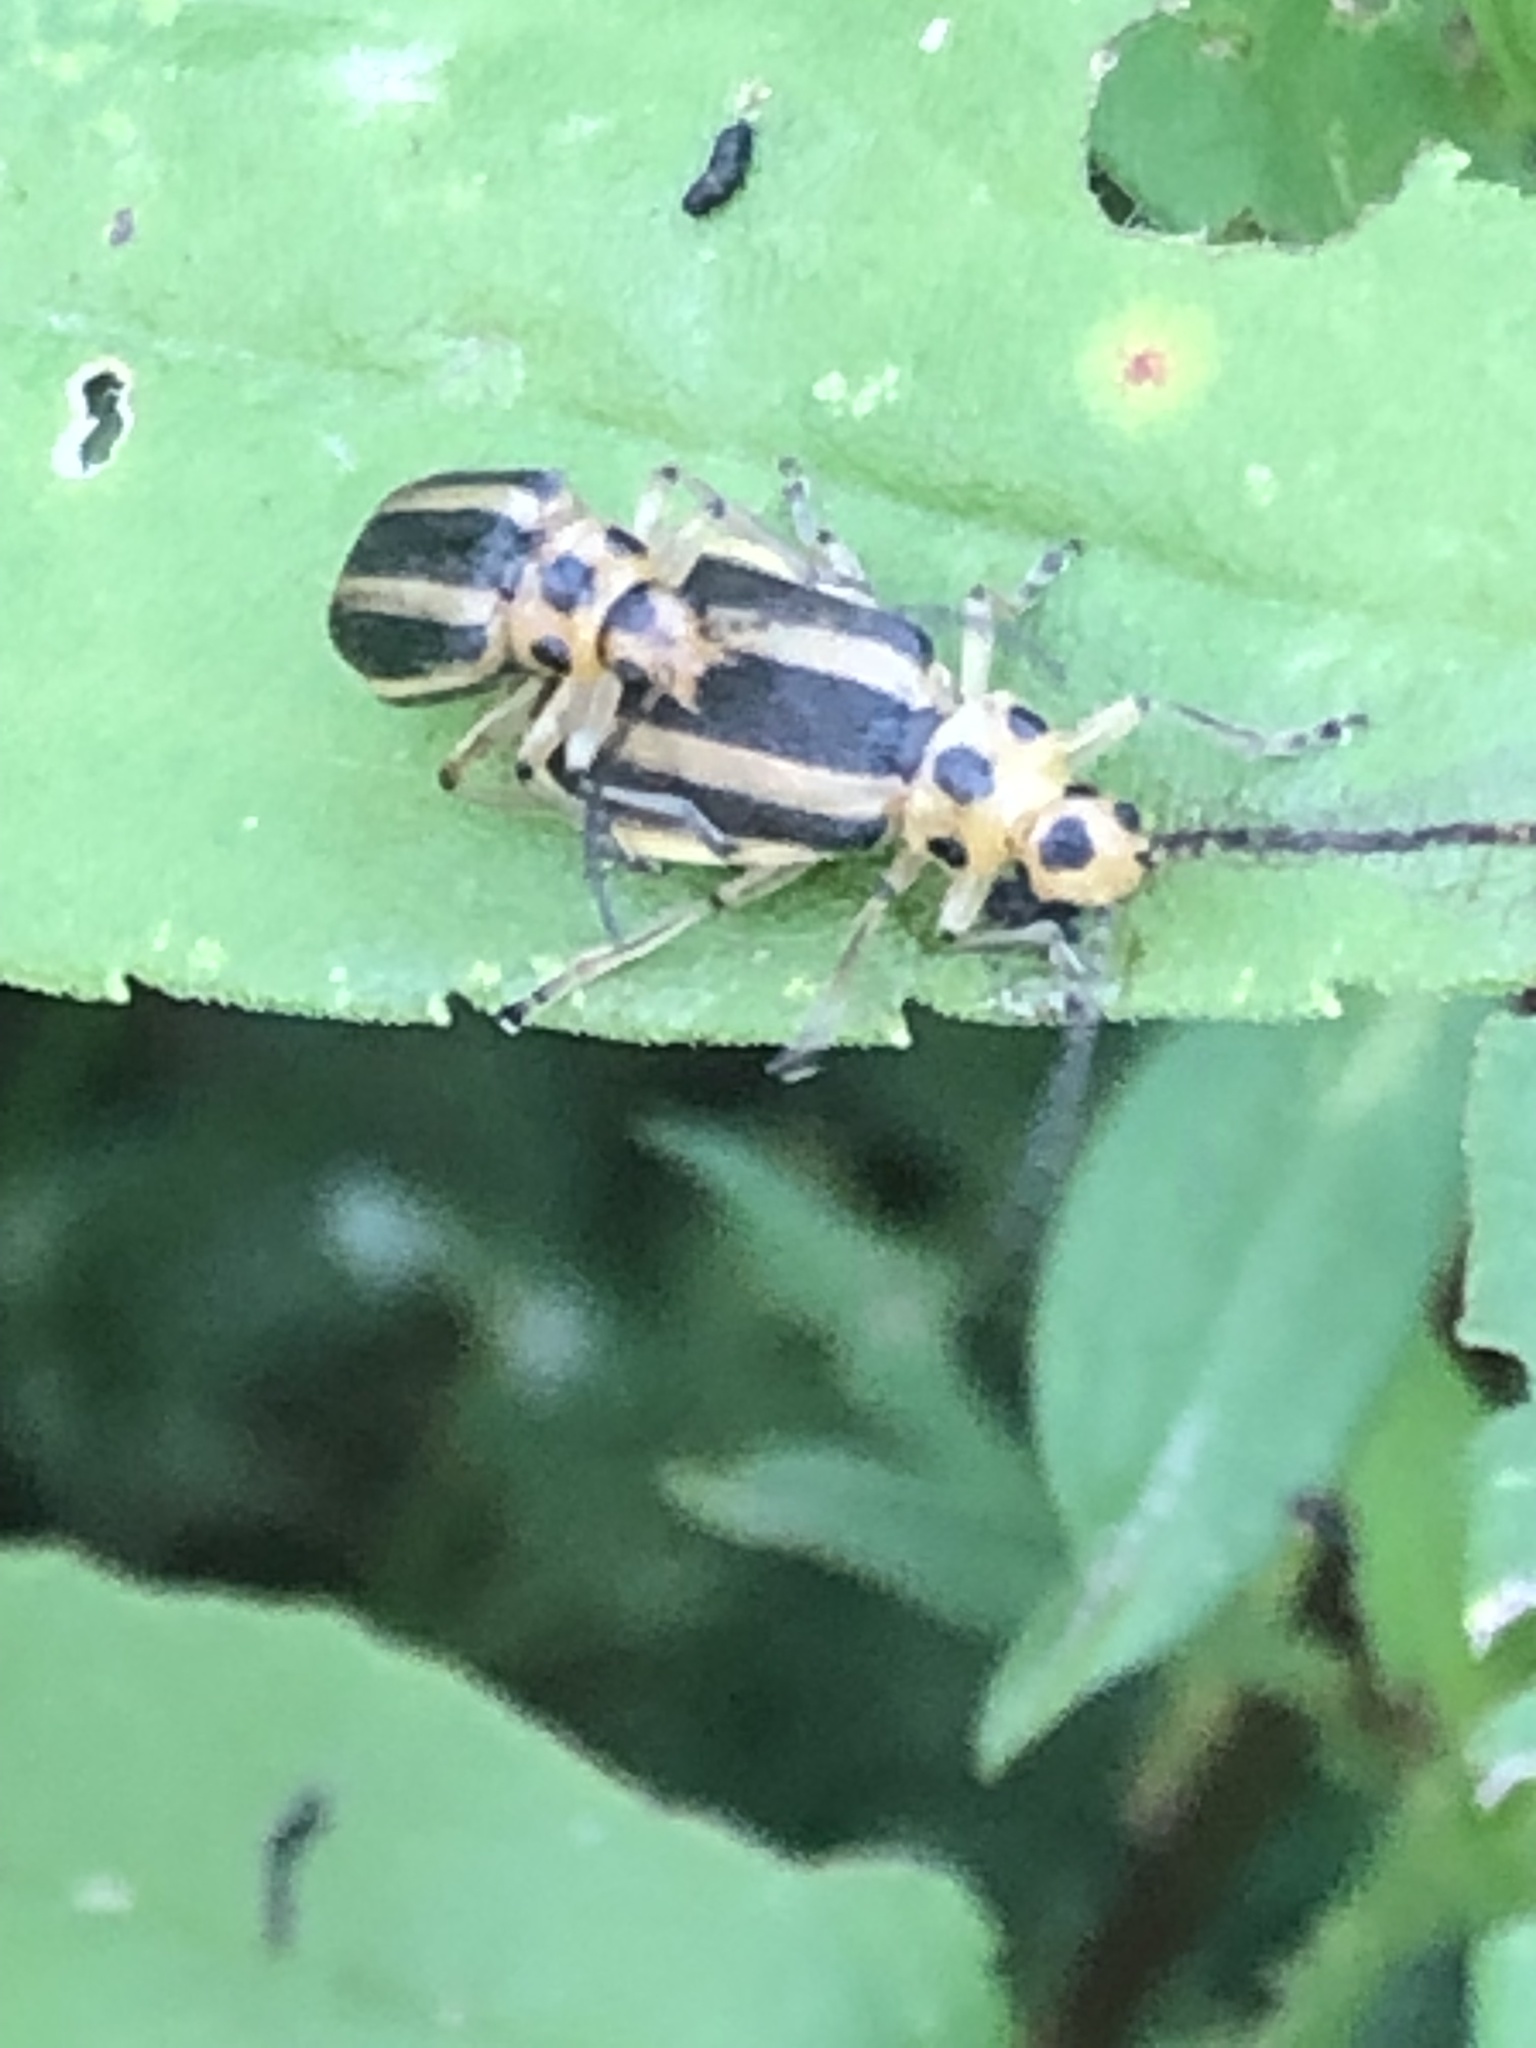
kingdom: Animalia
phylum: Arthropoda
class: Insecta
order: Coleoptera
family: Chrysomelidae
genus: Trirhabda
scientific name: Trirhabda canadensis
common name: Goldenrod leaf beetle
